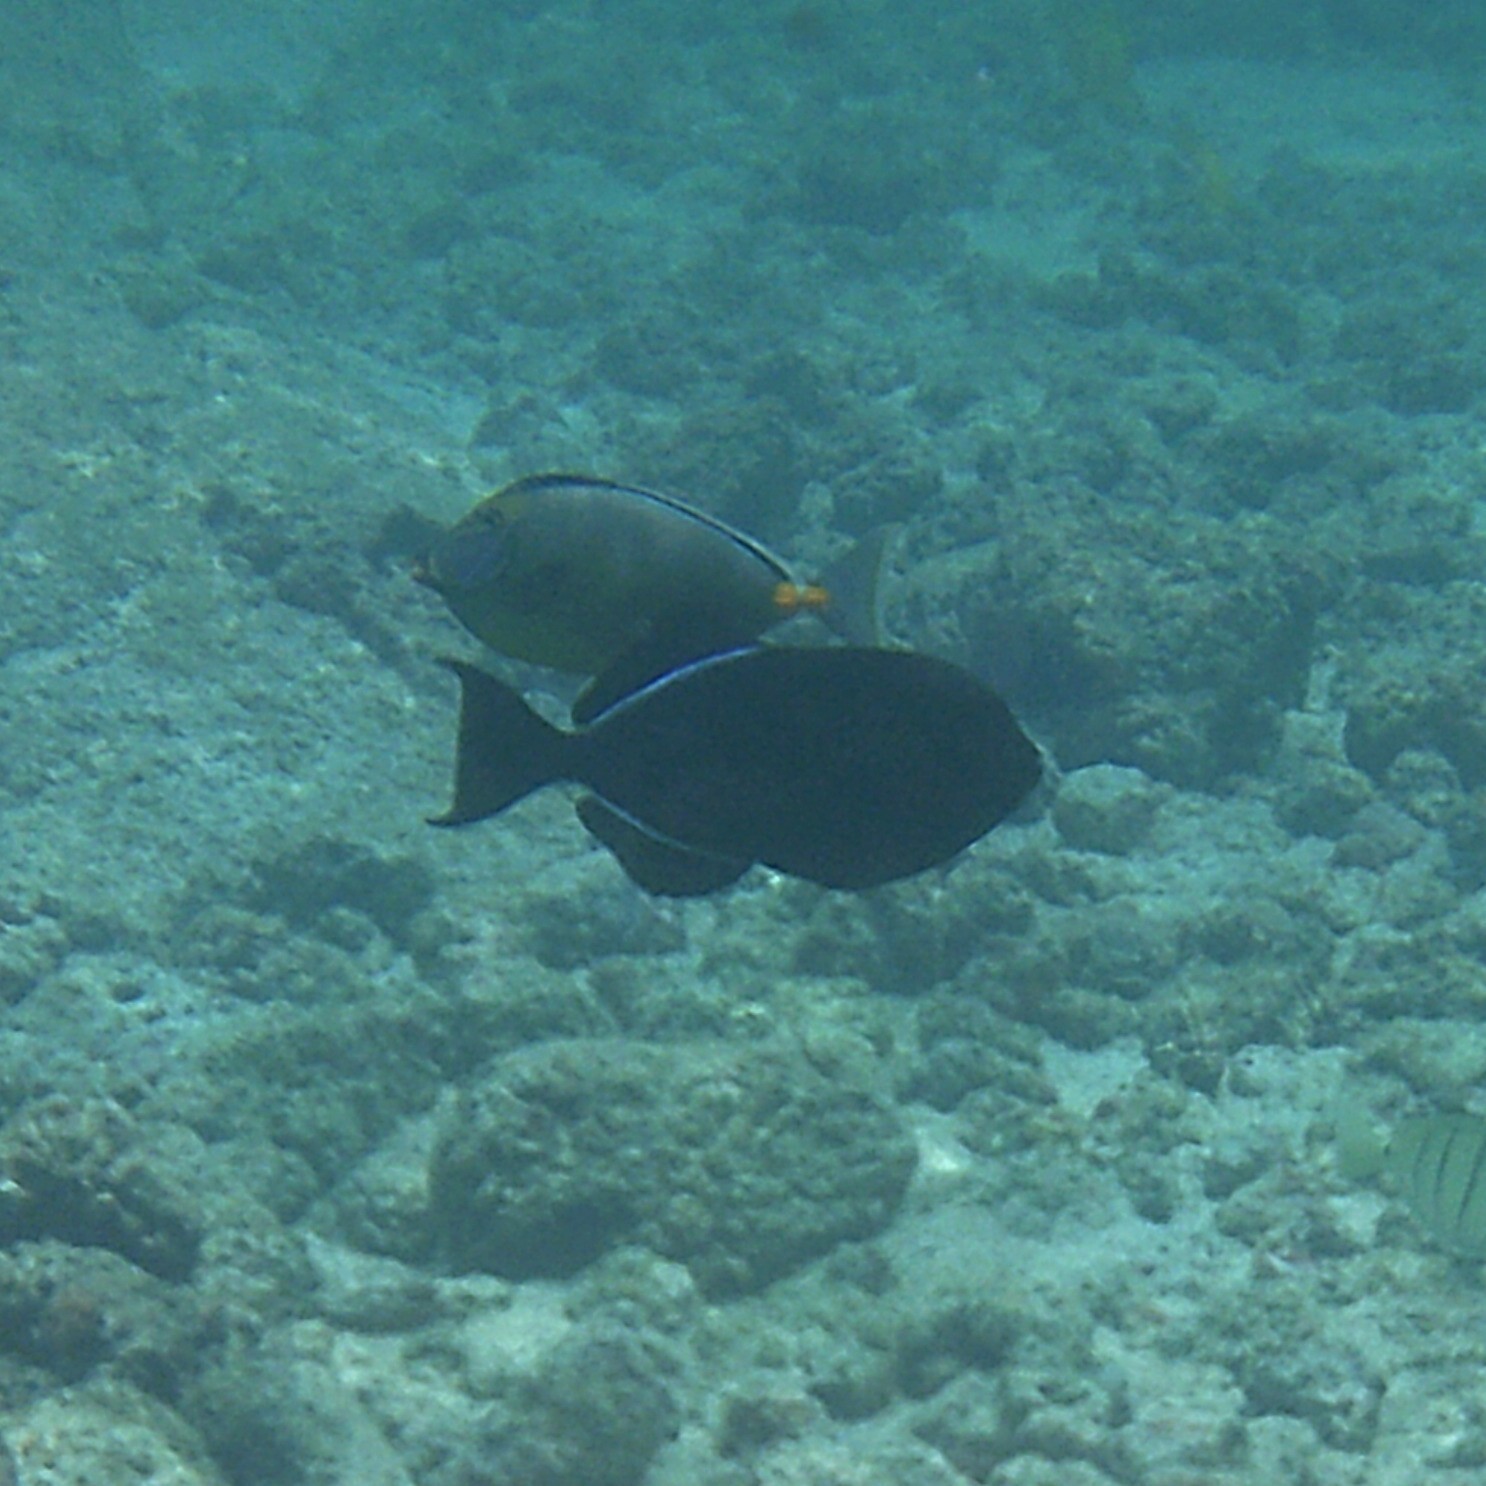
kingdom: Animalia
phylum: Chordata
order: Perciformes
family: Acanthuridae
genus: Naso
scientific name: Naso lituratus
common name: Orangespine unicornfish
